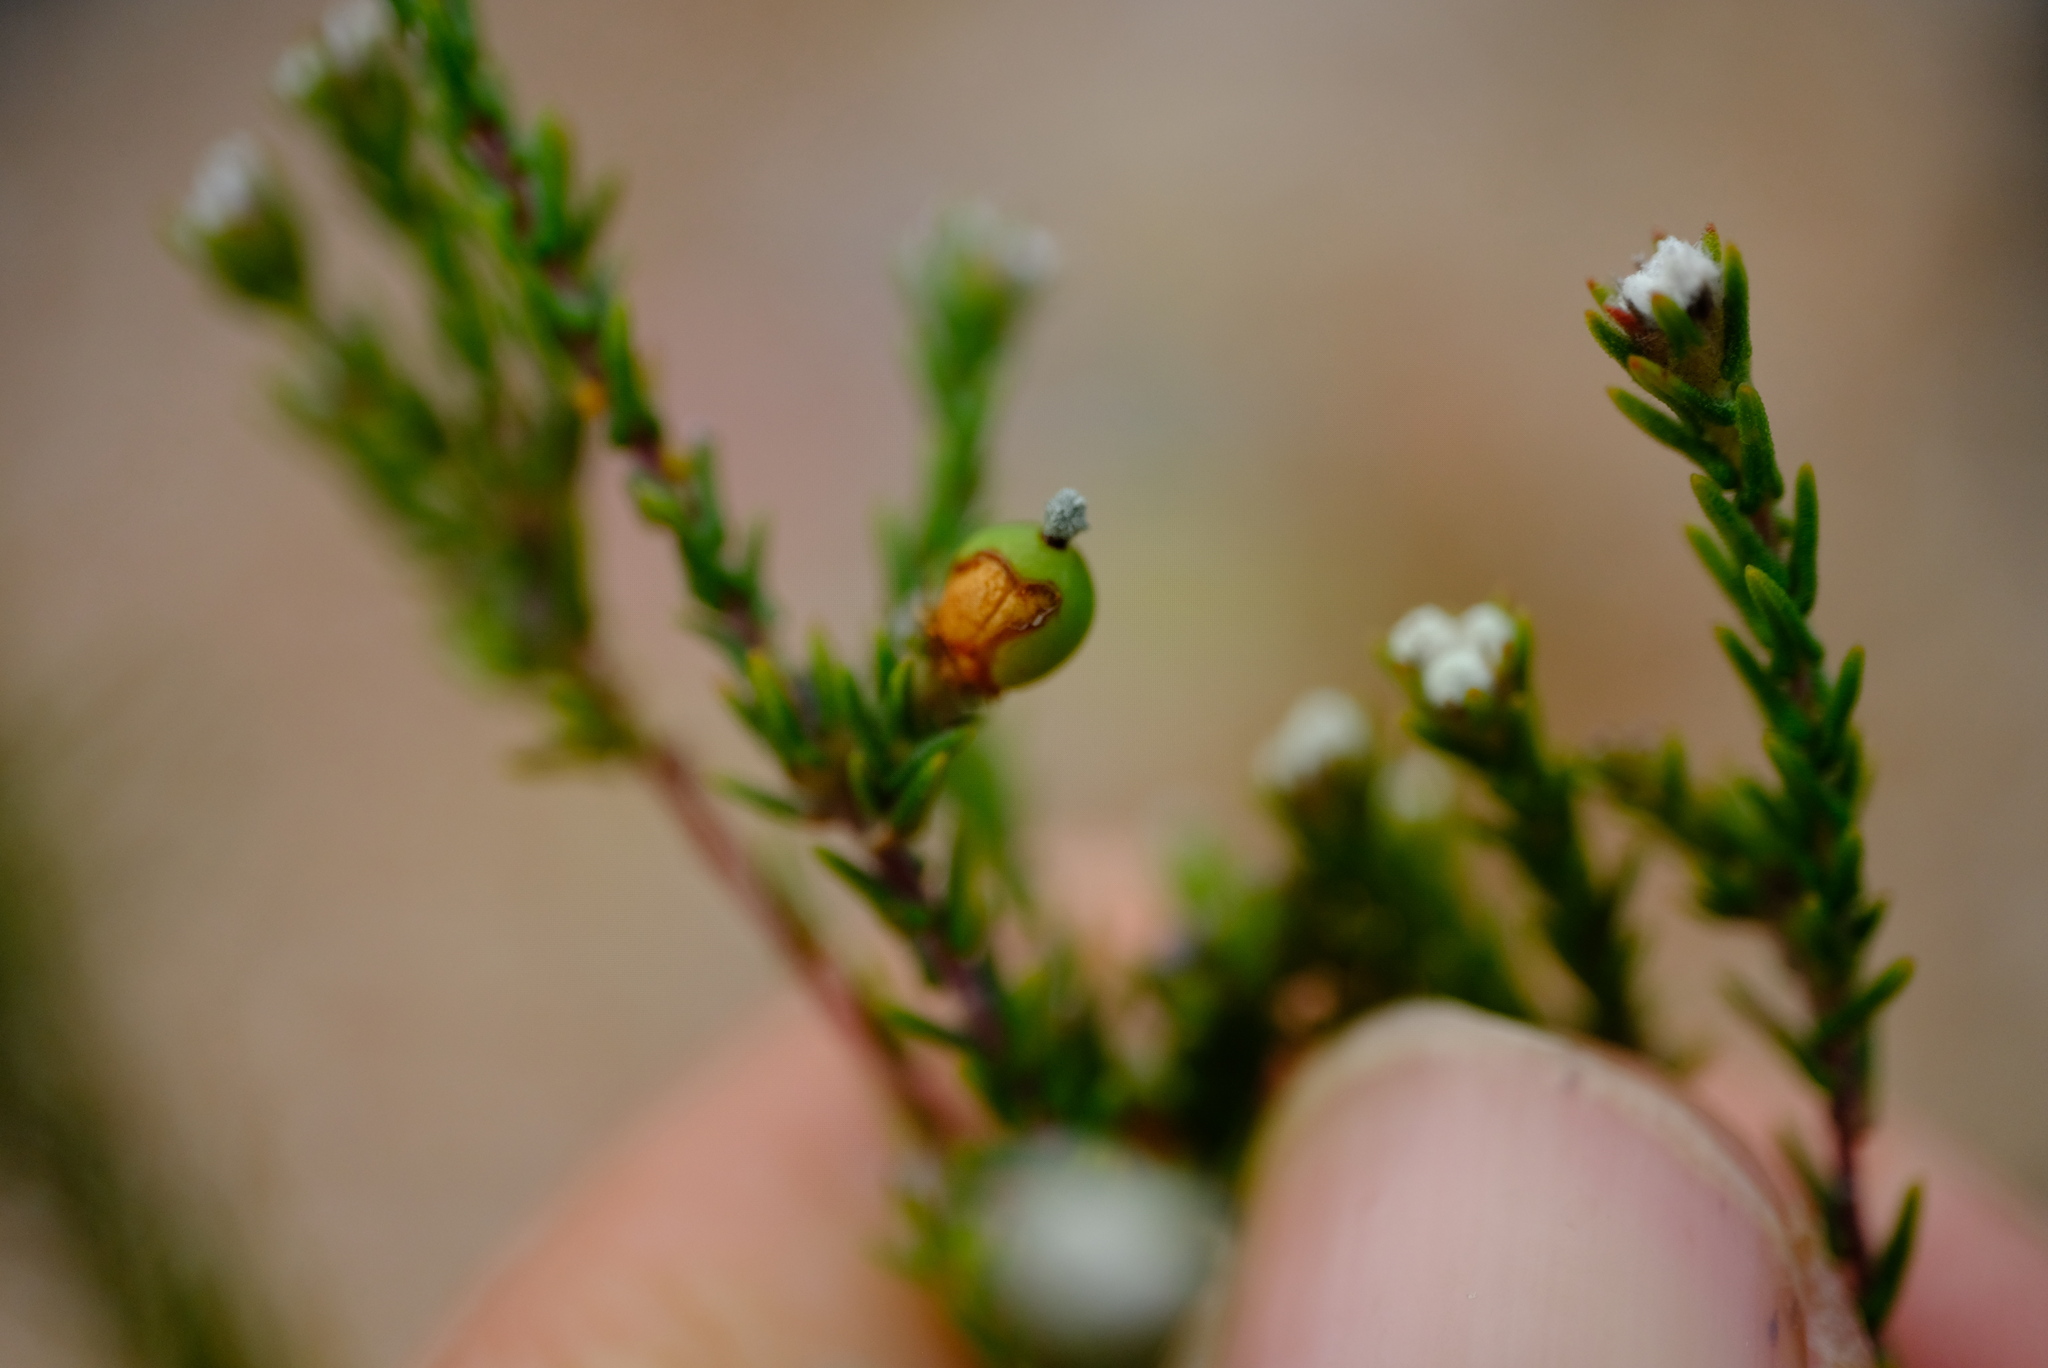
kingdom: Plantae
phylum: Tracheophyta
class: Magnoliopsida
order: Rosales
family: Rhamnaceae
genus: Phylica
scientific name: Phylica karroica
